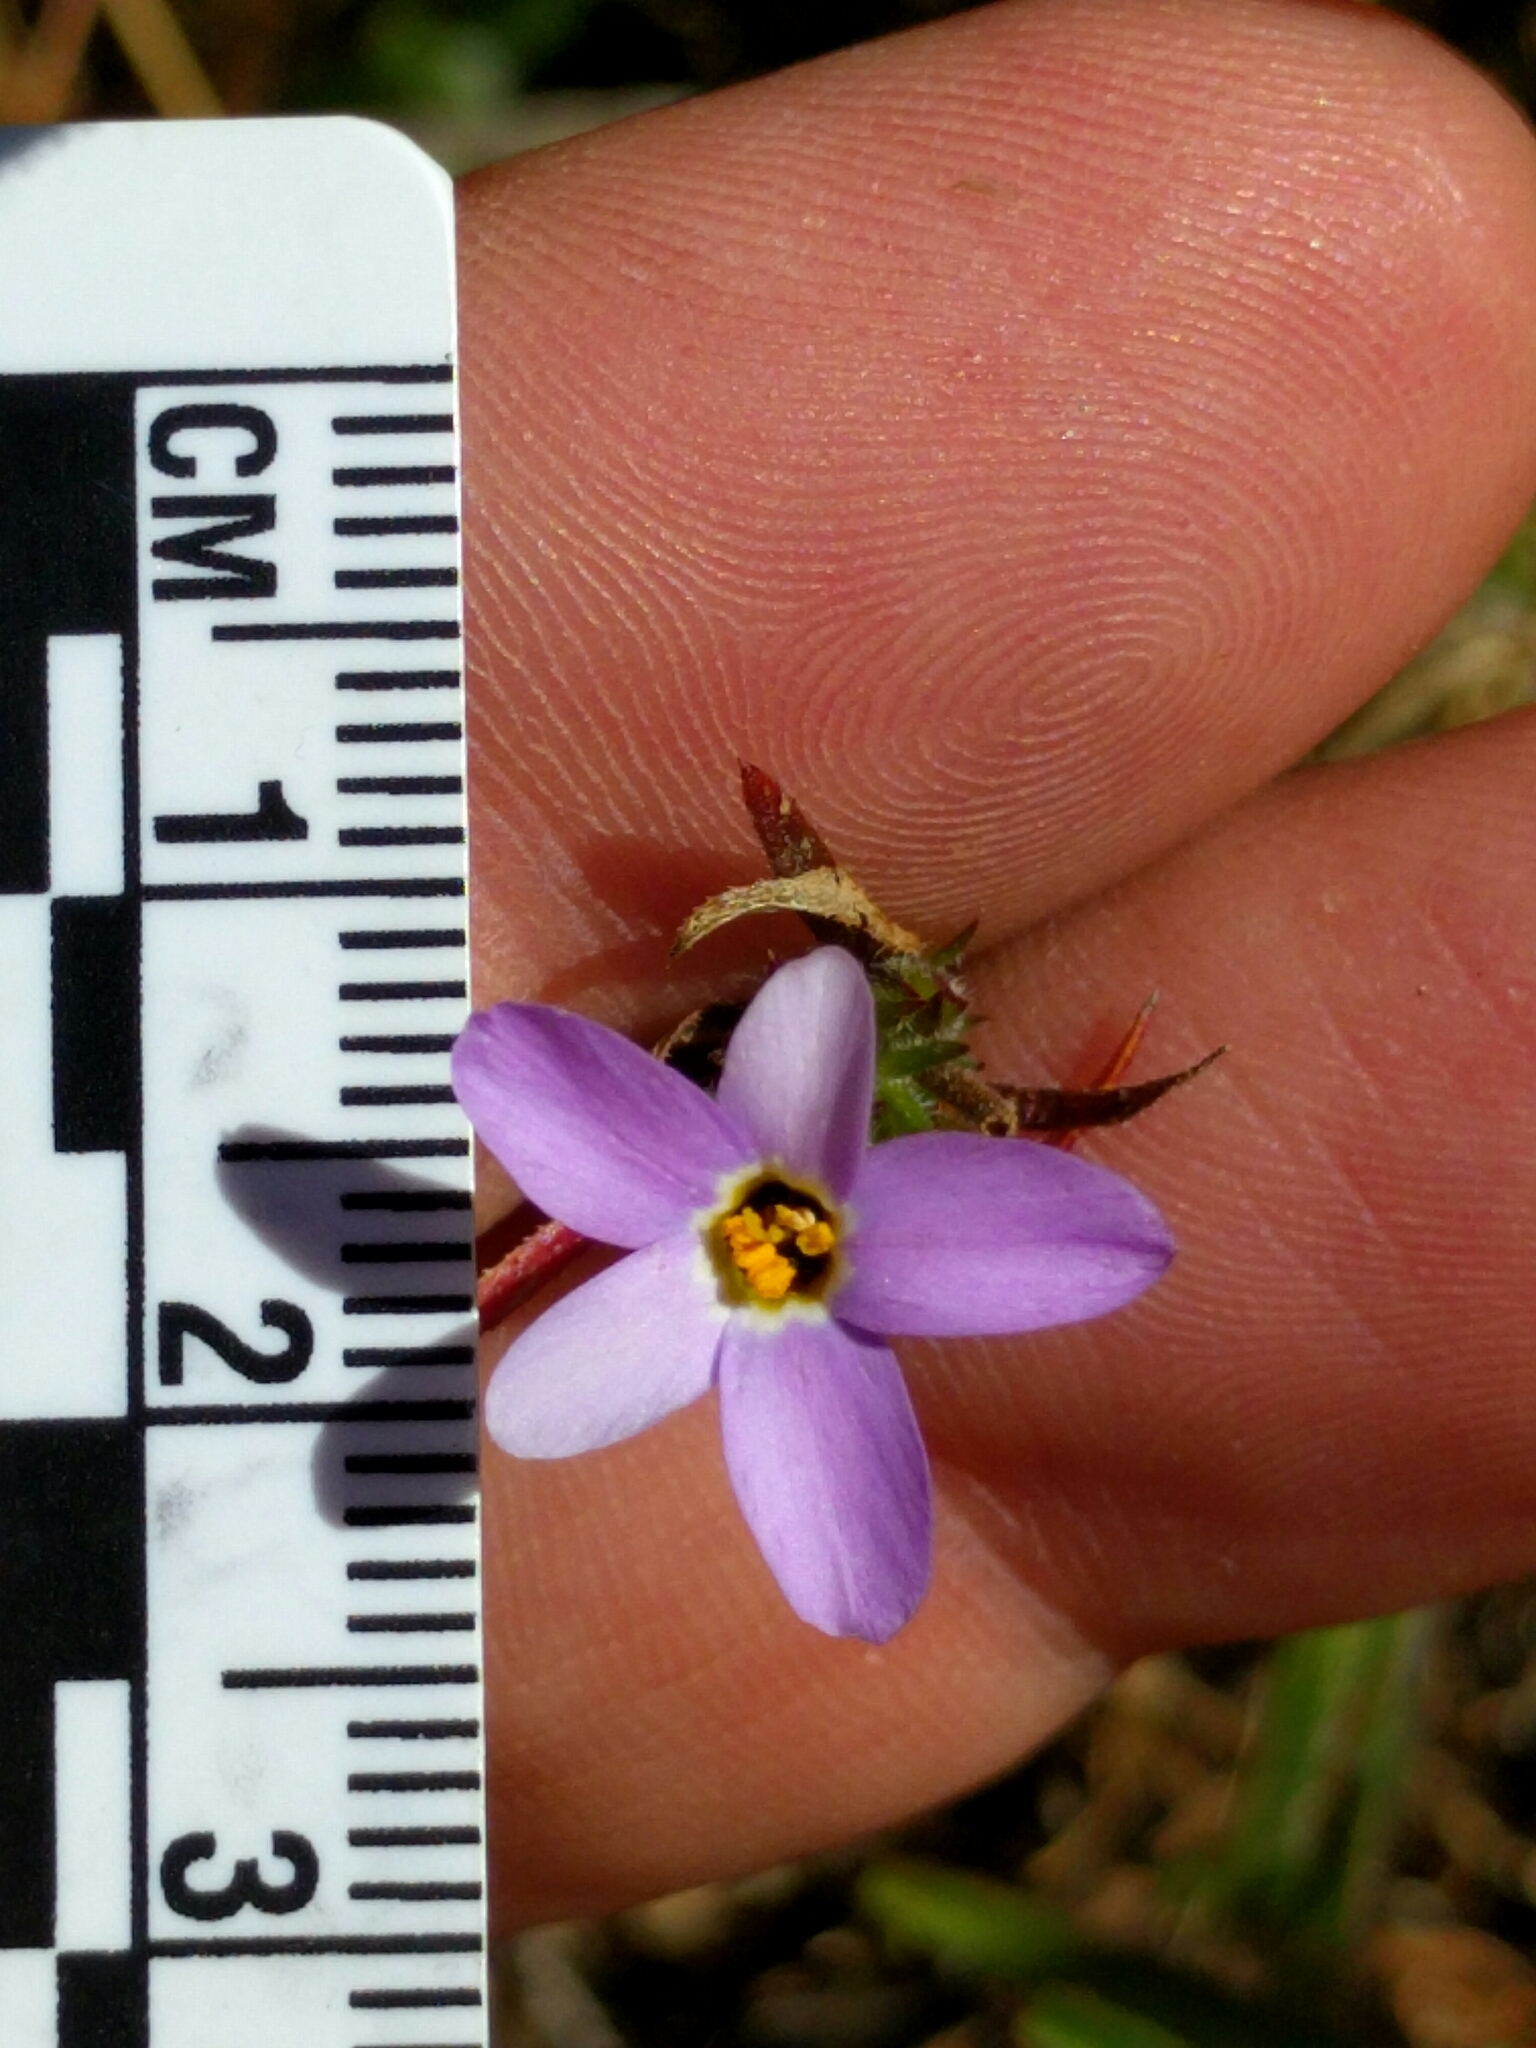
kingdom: Plantae
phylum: Tracheophyta
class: Magnoliopsida
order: Ericales
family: Polemoniaceae
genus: Leptosiphon
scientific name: Leptosiphon androsaceus
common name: False babystars
